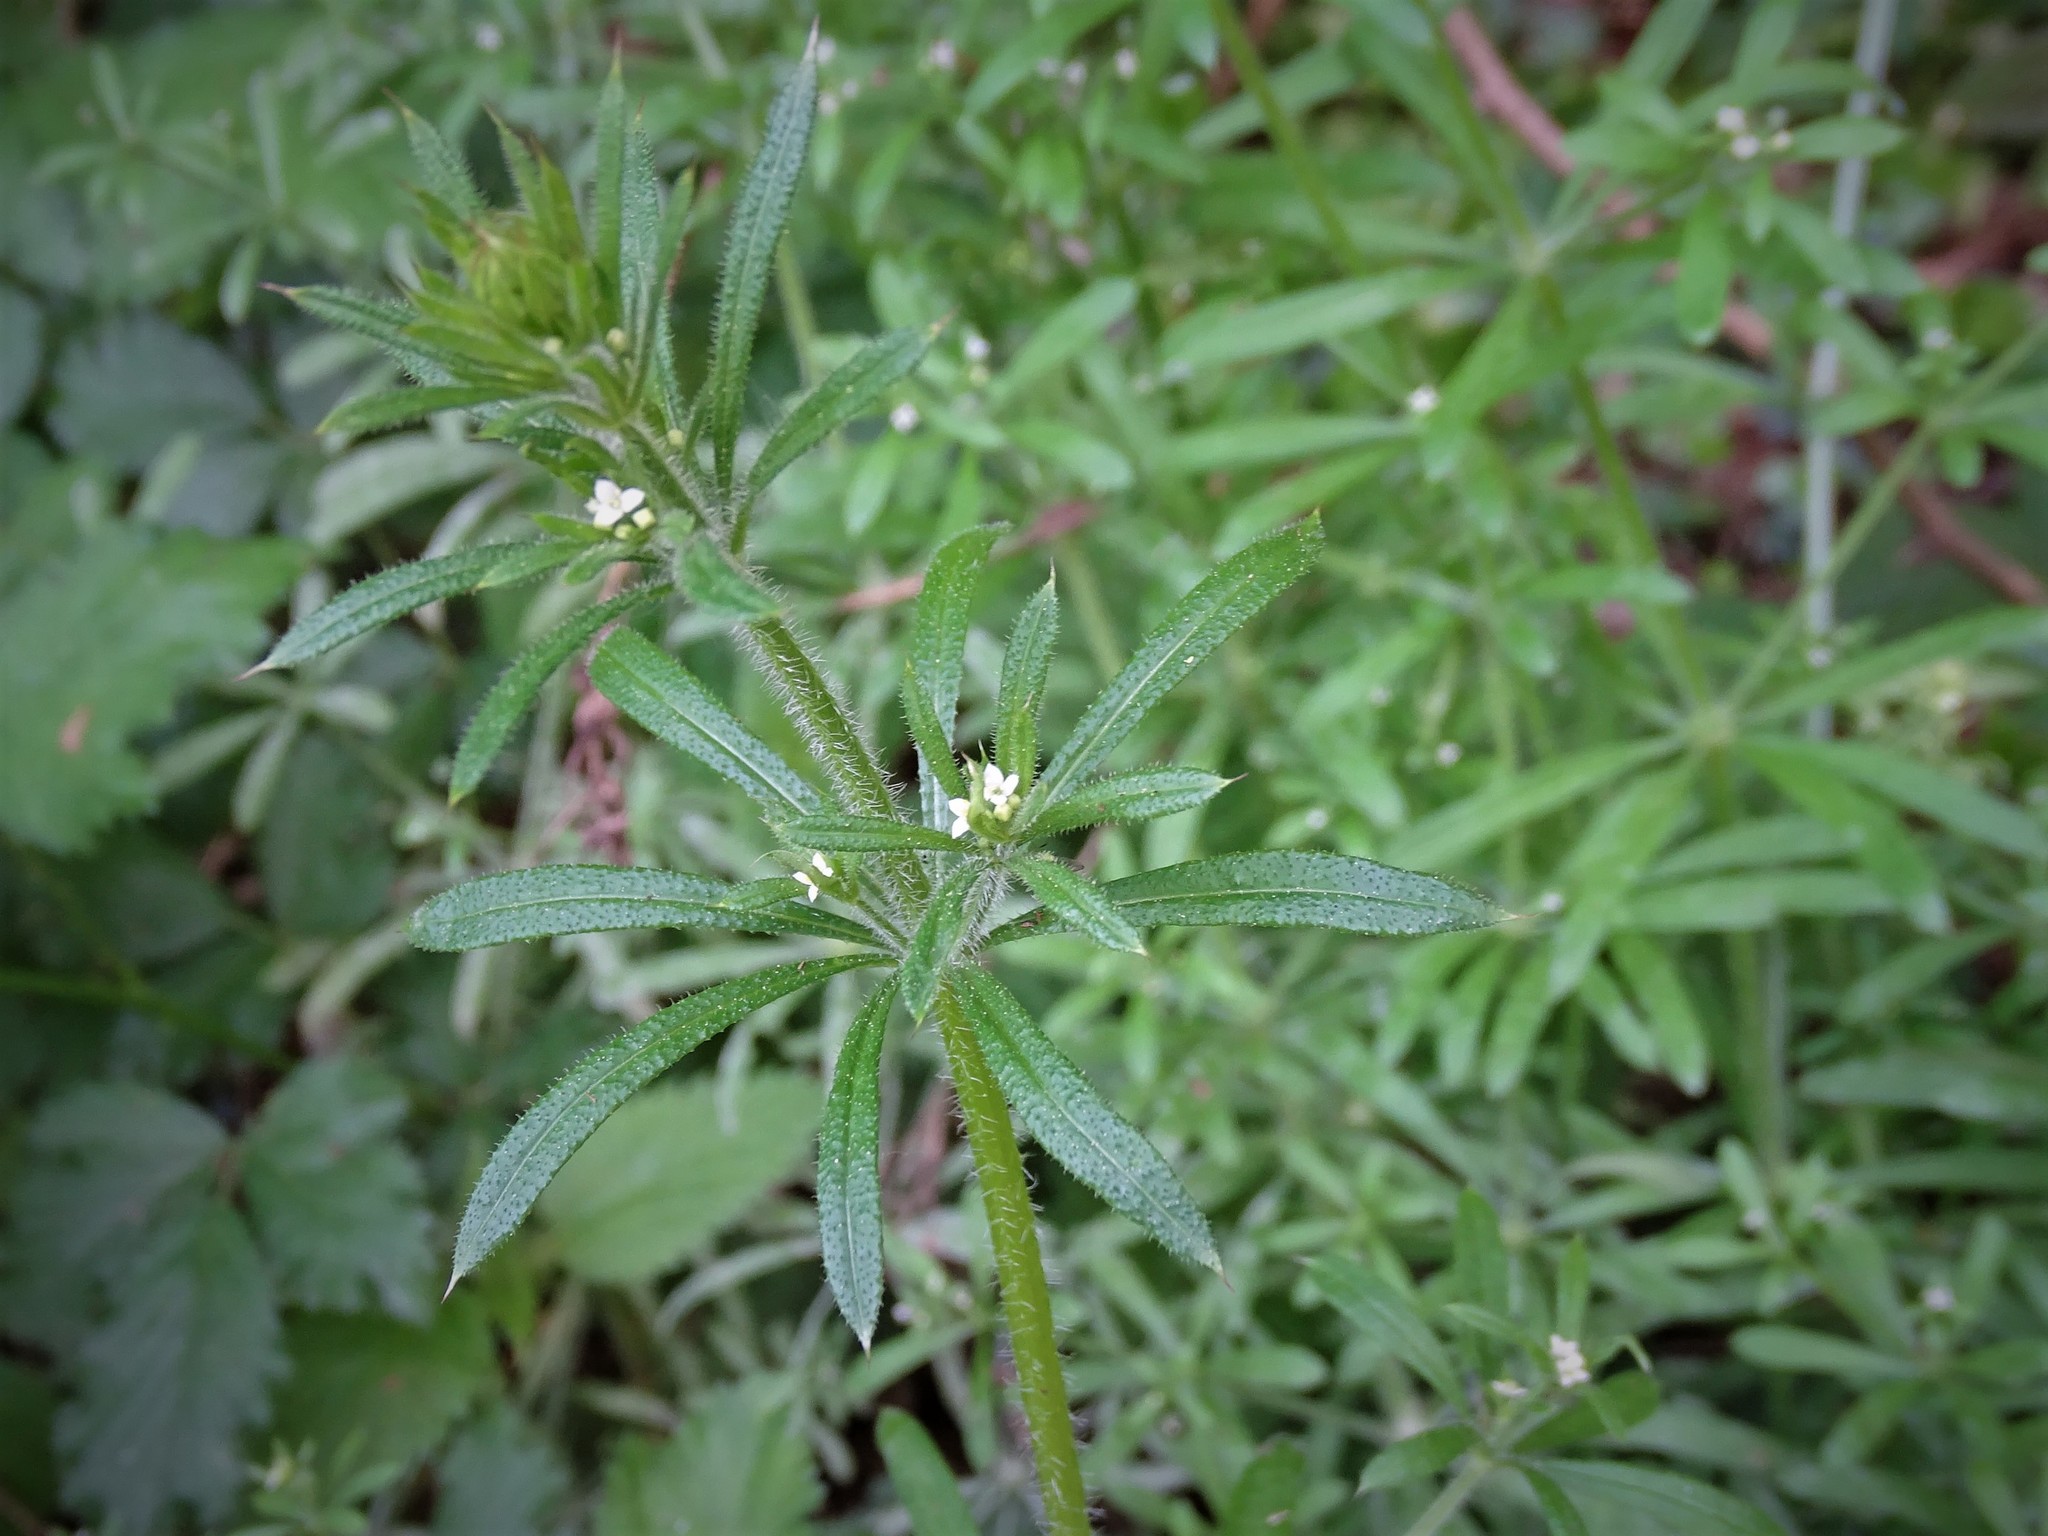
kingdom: Plantae
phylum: Tracheophyta
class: Magnoliopsida
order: Gentianales
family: Rubiaceae
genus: Galium
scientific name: Galium aparine
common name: Cleavers
